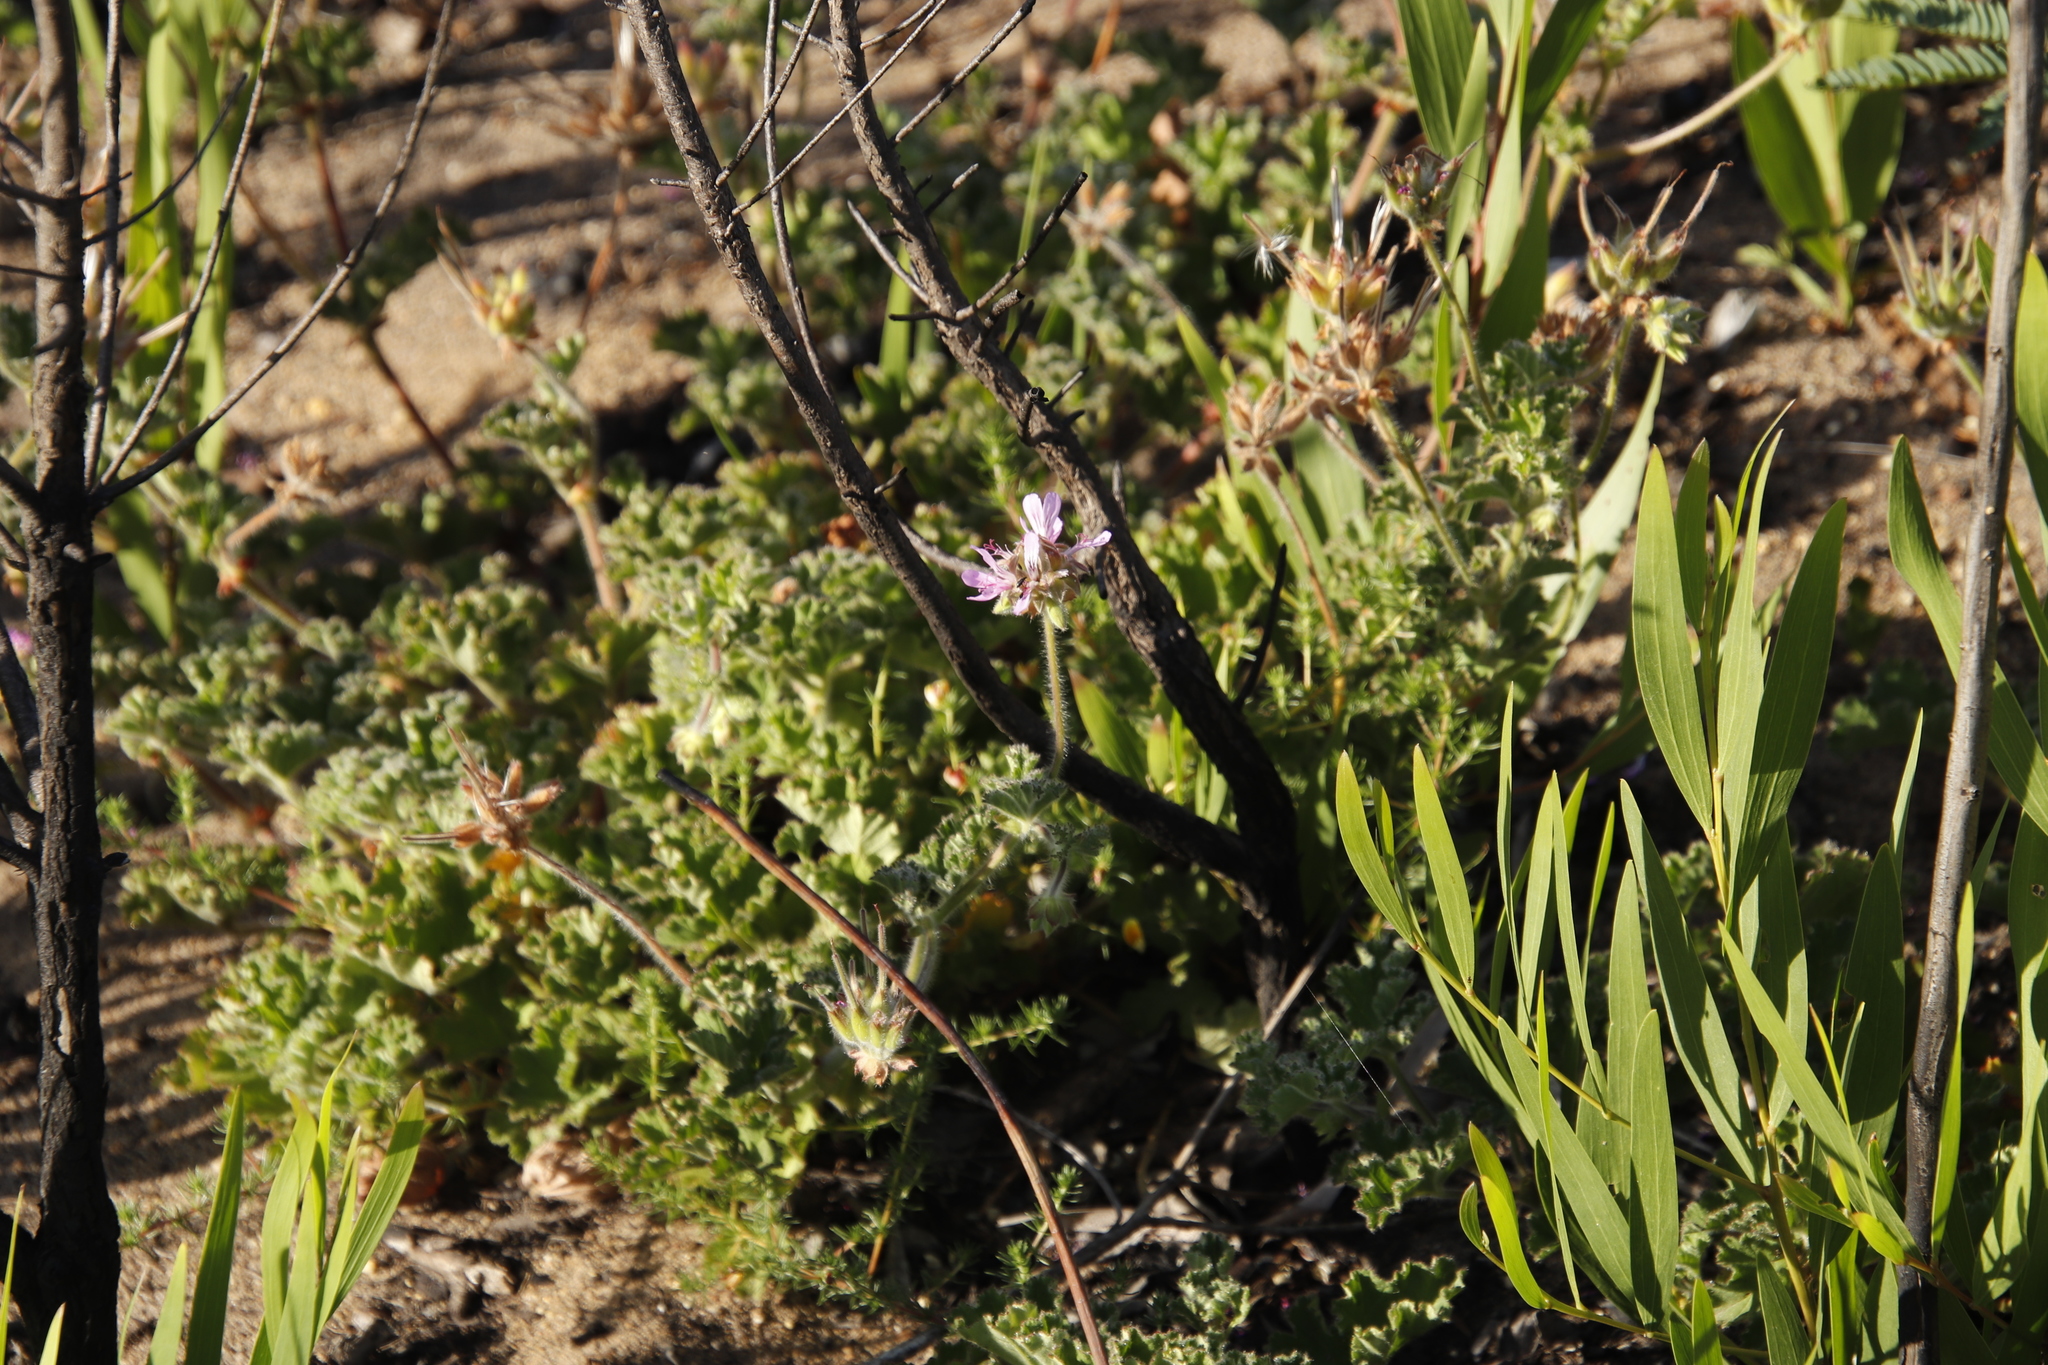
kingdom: Plantae
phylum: Tracheophyta
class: Magnoliopsida
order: Geraniales
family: Geraniaceae
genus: Pelargonium
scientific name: Pelargonium capitatum
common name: Rose scented geranium
